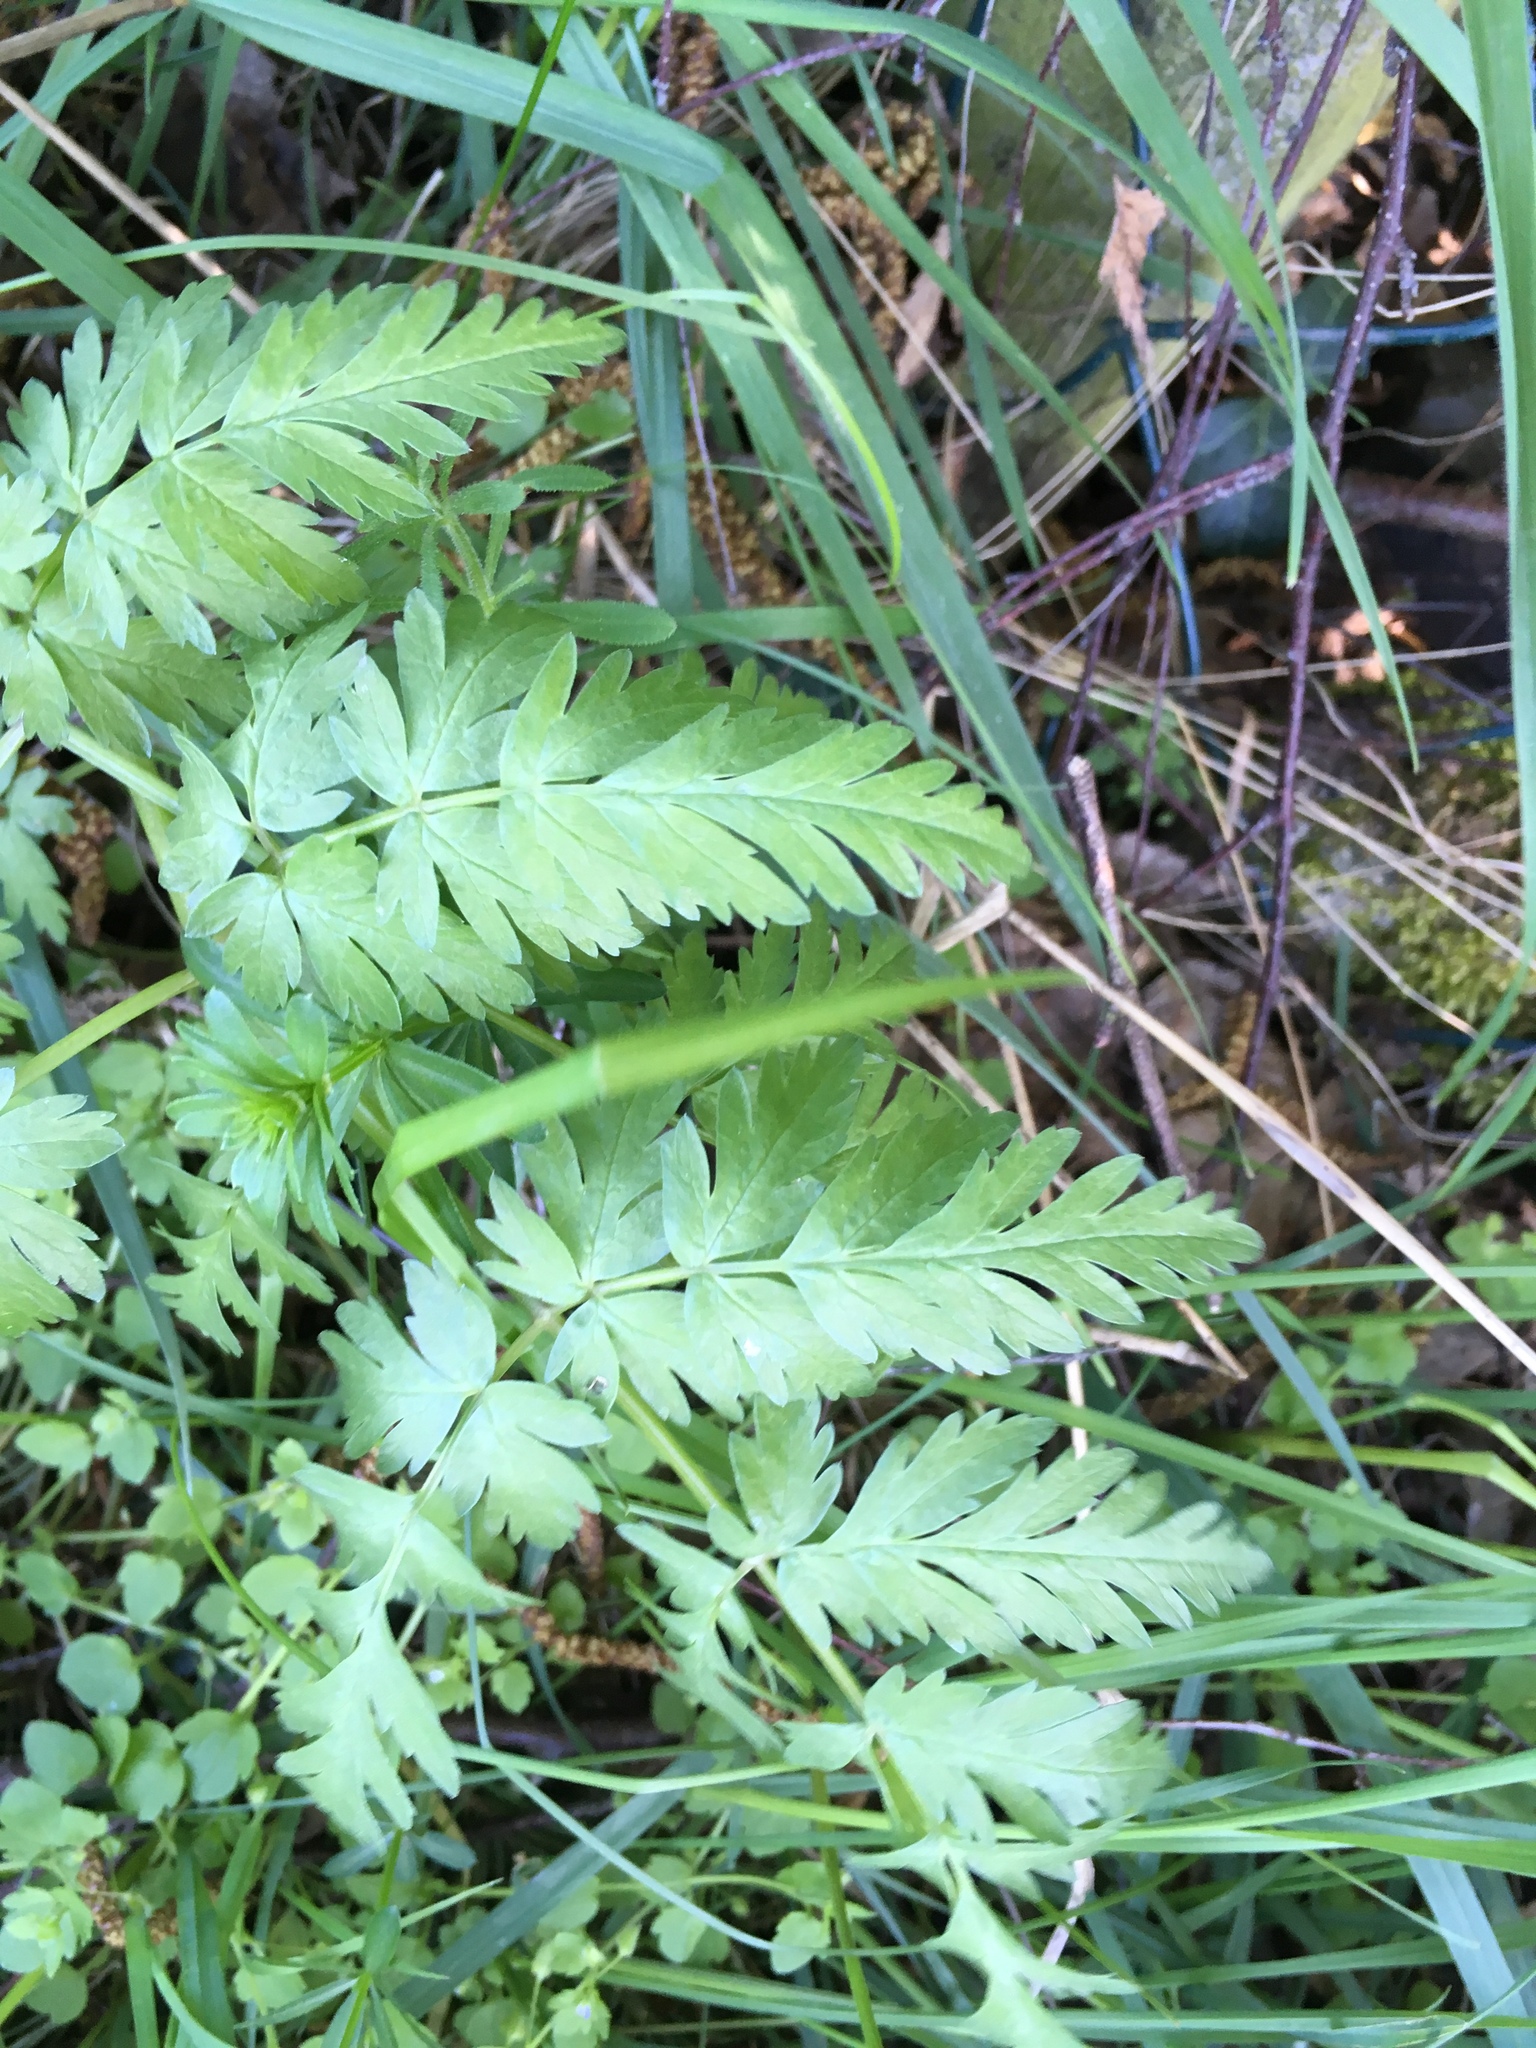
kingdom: Plantae
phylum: Tracheophyta
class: Magnoliopsida
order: Apiales
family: Apiaceae
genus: Anthriscus
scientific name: Anthriscus sylvestris
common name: Cow parsley
